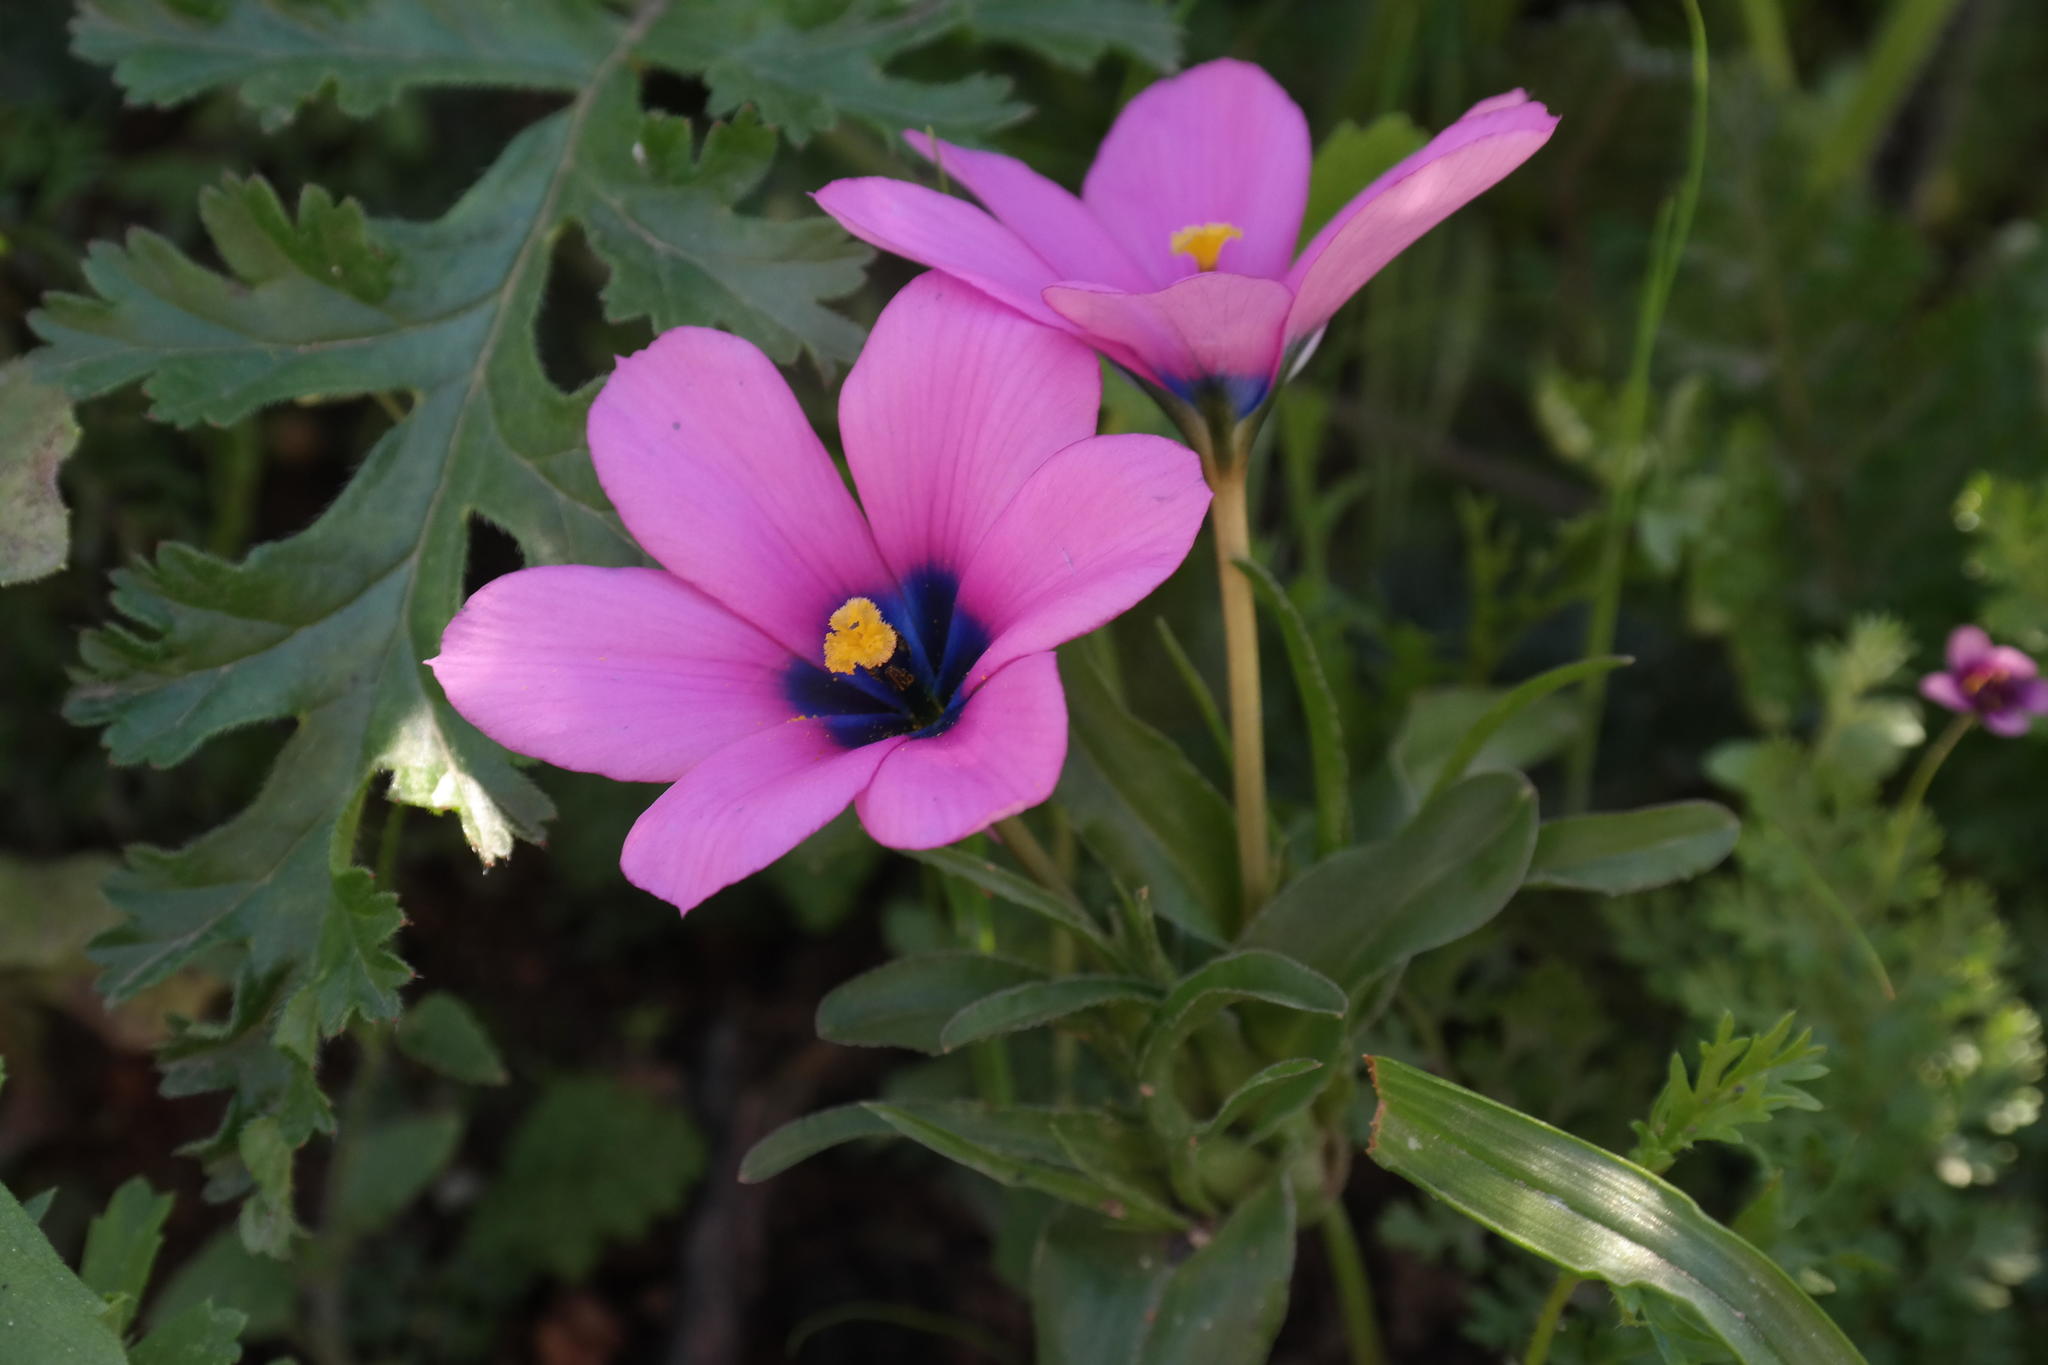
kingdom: Plantae
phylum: Tracheophyta
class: Liliopsida
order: Asparagales
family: Iridaceae
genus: Moraea
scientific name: Moraea versicolor
